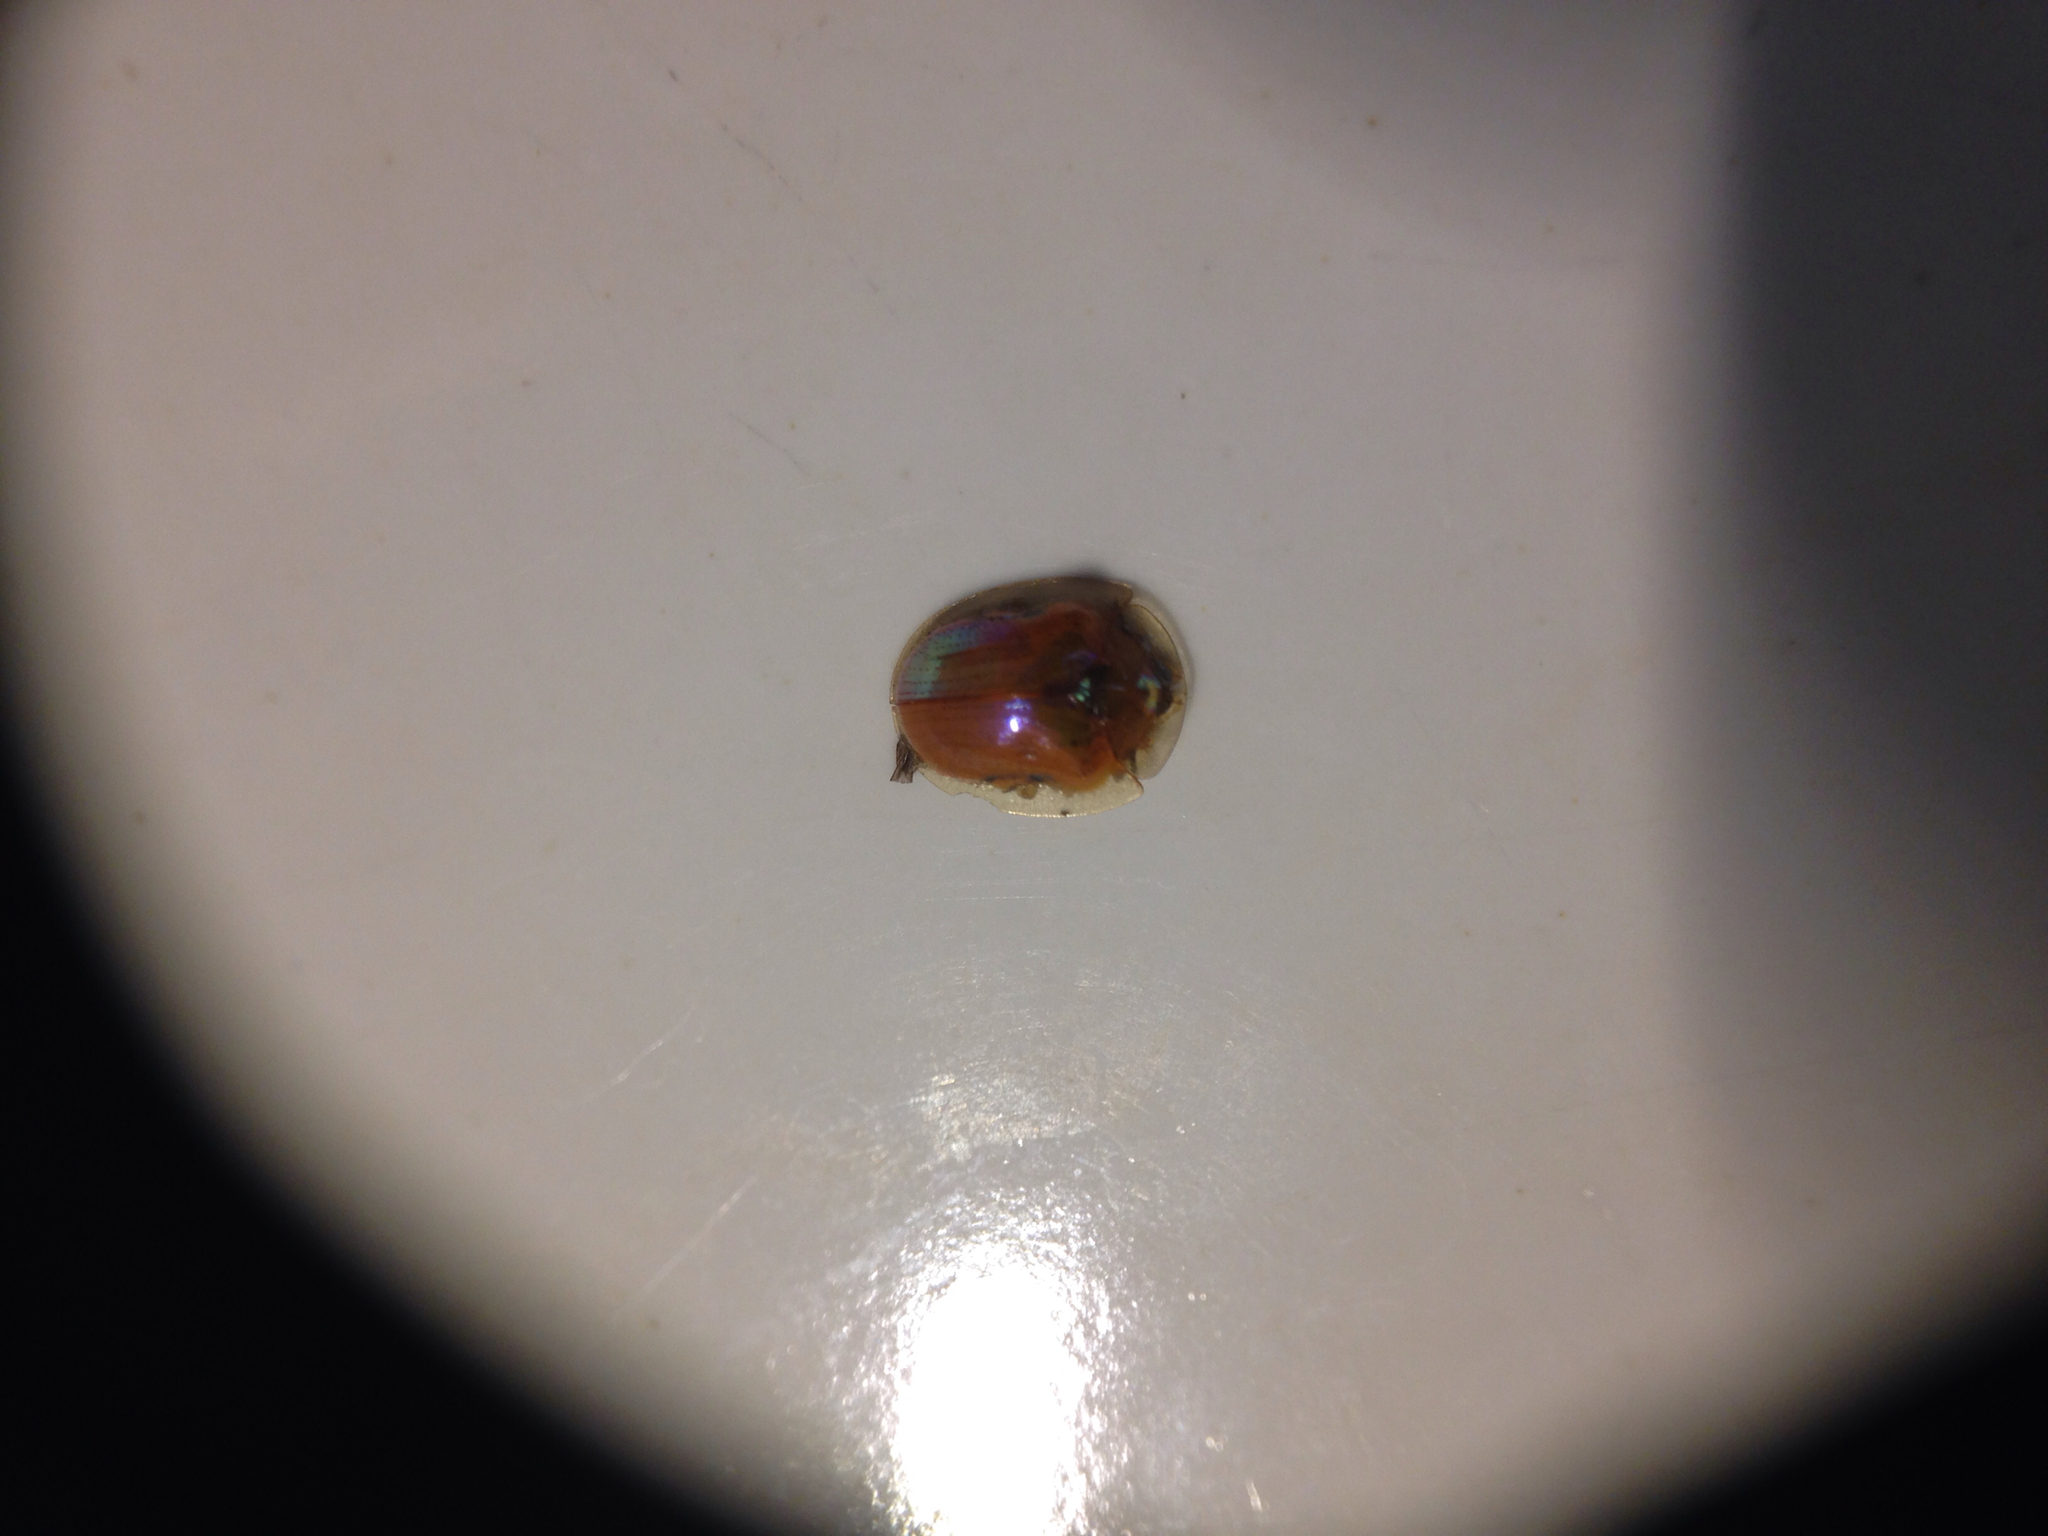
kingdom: Animalia
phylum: Arthropoda
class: Insecta
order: Coleoptera
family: Chrysomelidae
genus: Charidotella
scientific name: Charidotella sexpunctata
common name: Golden tortoise beetle
